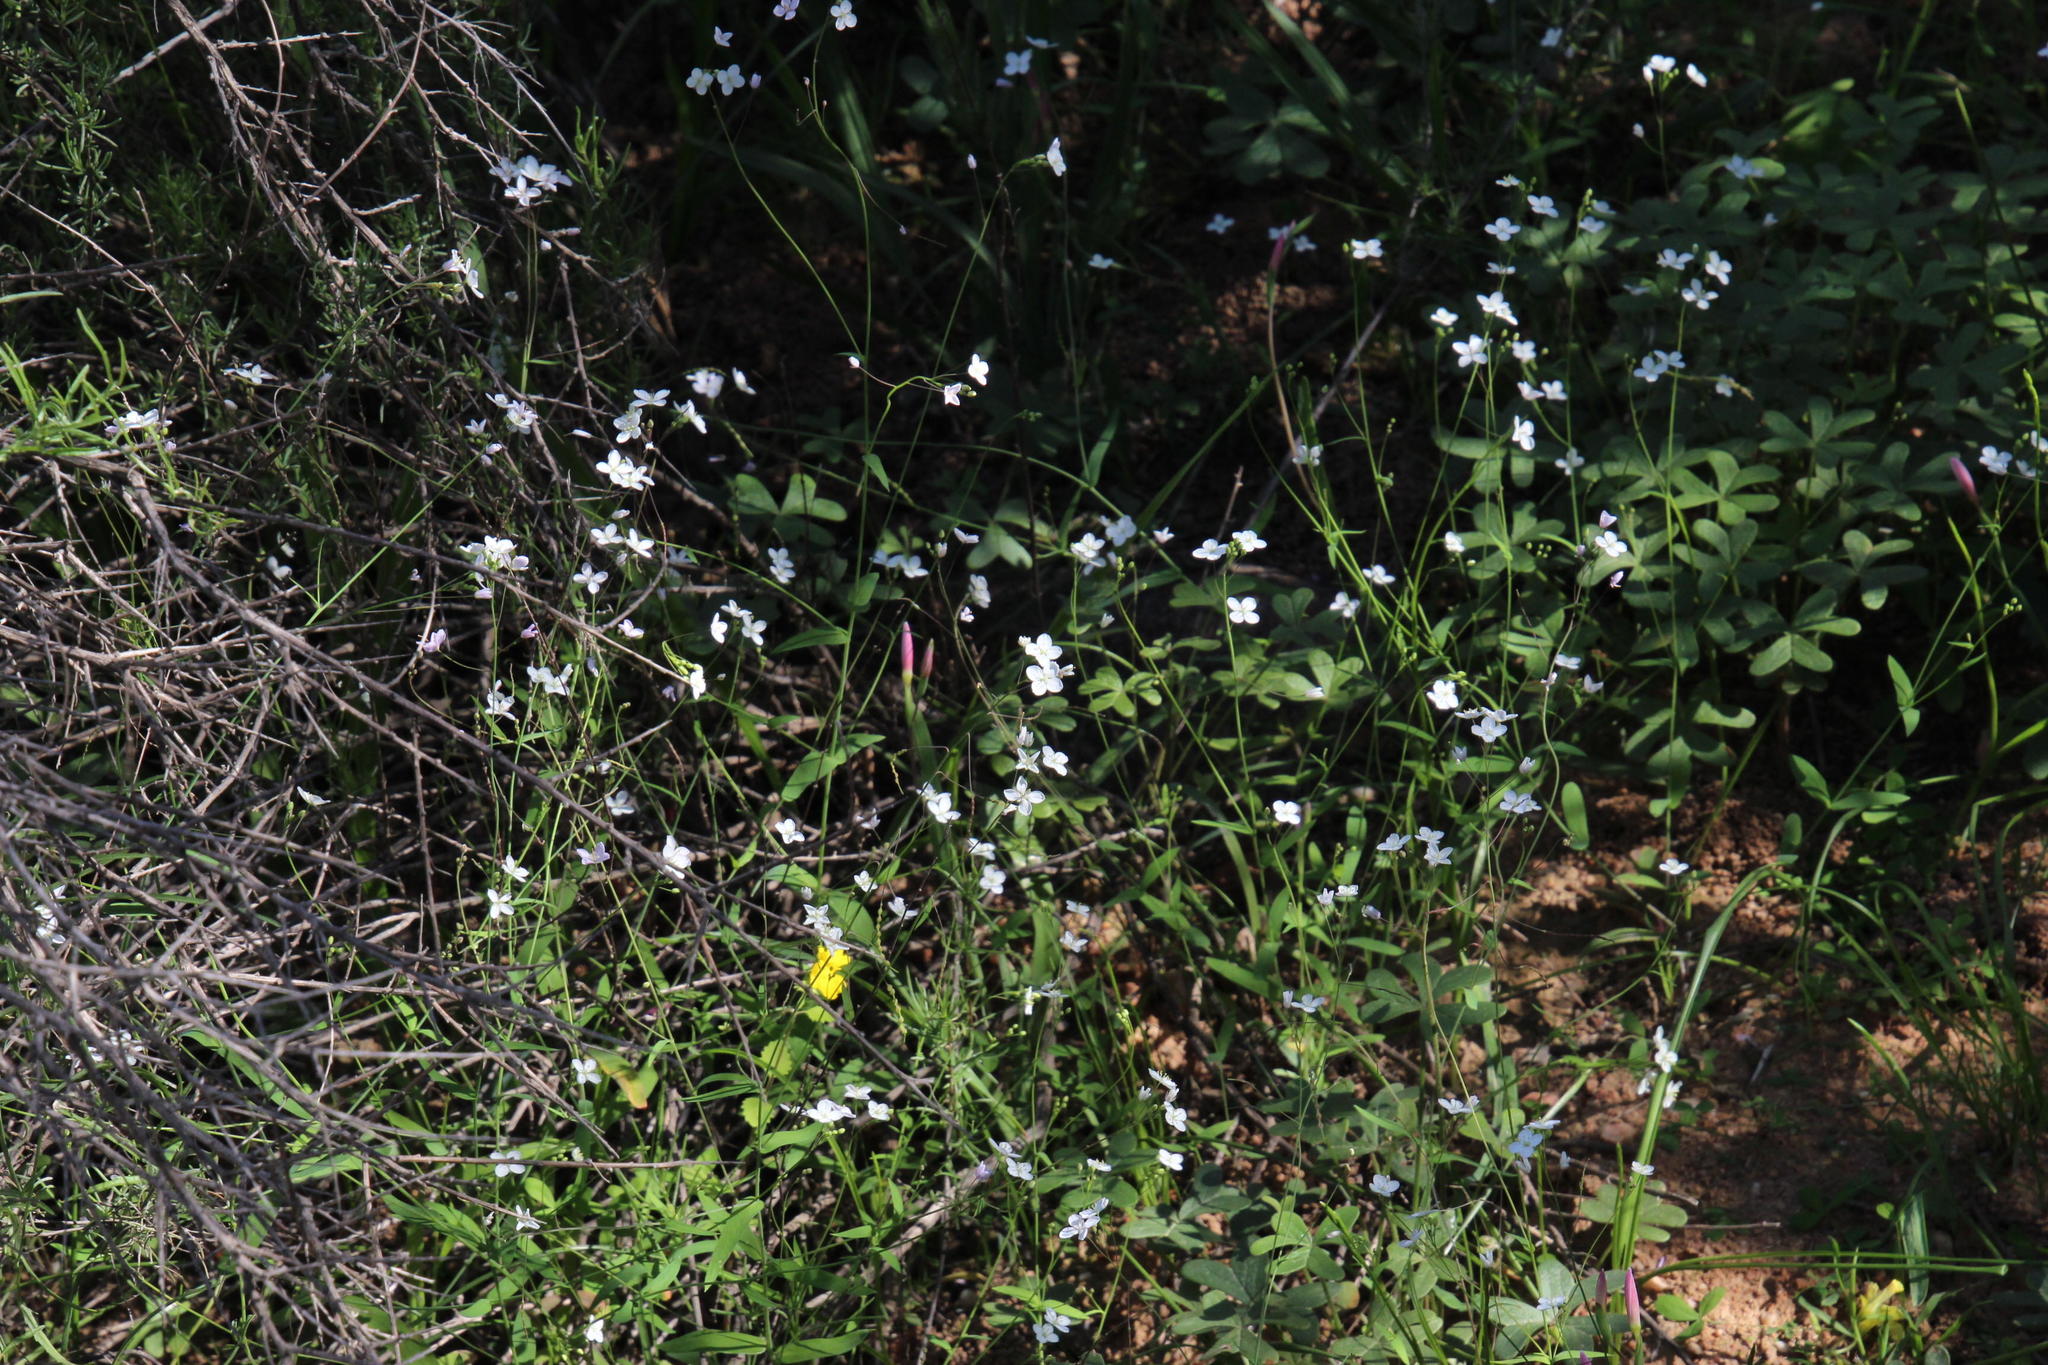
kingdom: Plantae
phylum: Tracheophyta
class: Magnoliopsida
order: Brassicales
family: Brassicaceae
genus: Heliophila
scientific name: Heliophila amplexicaulis
